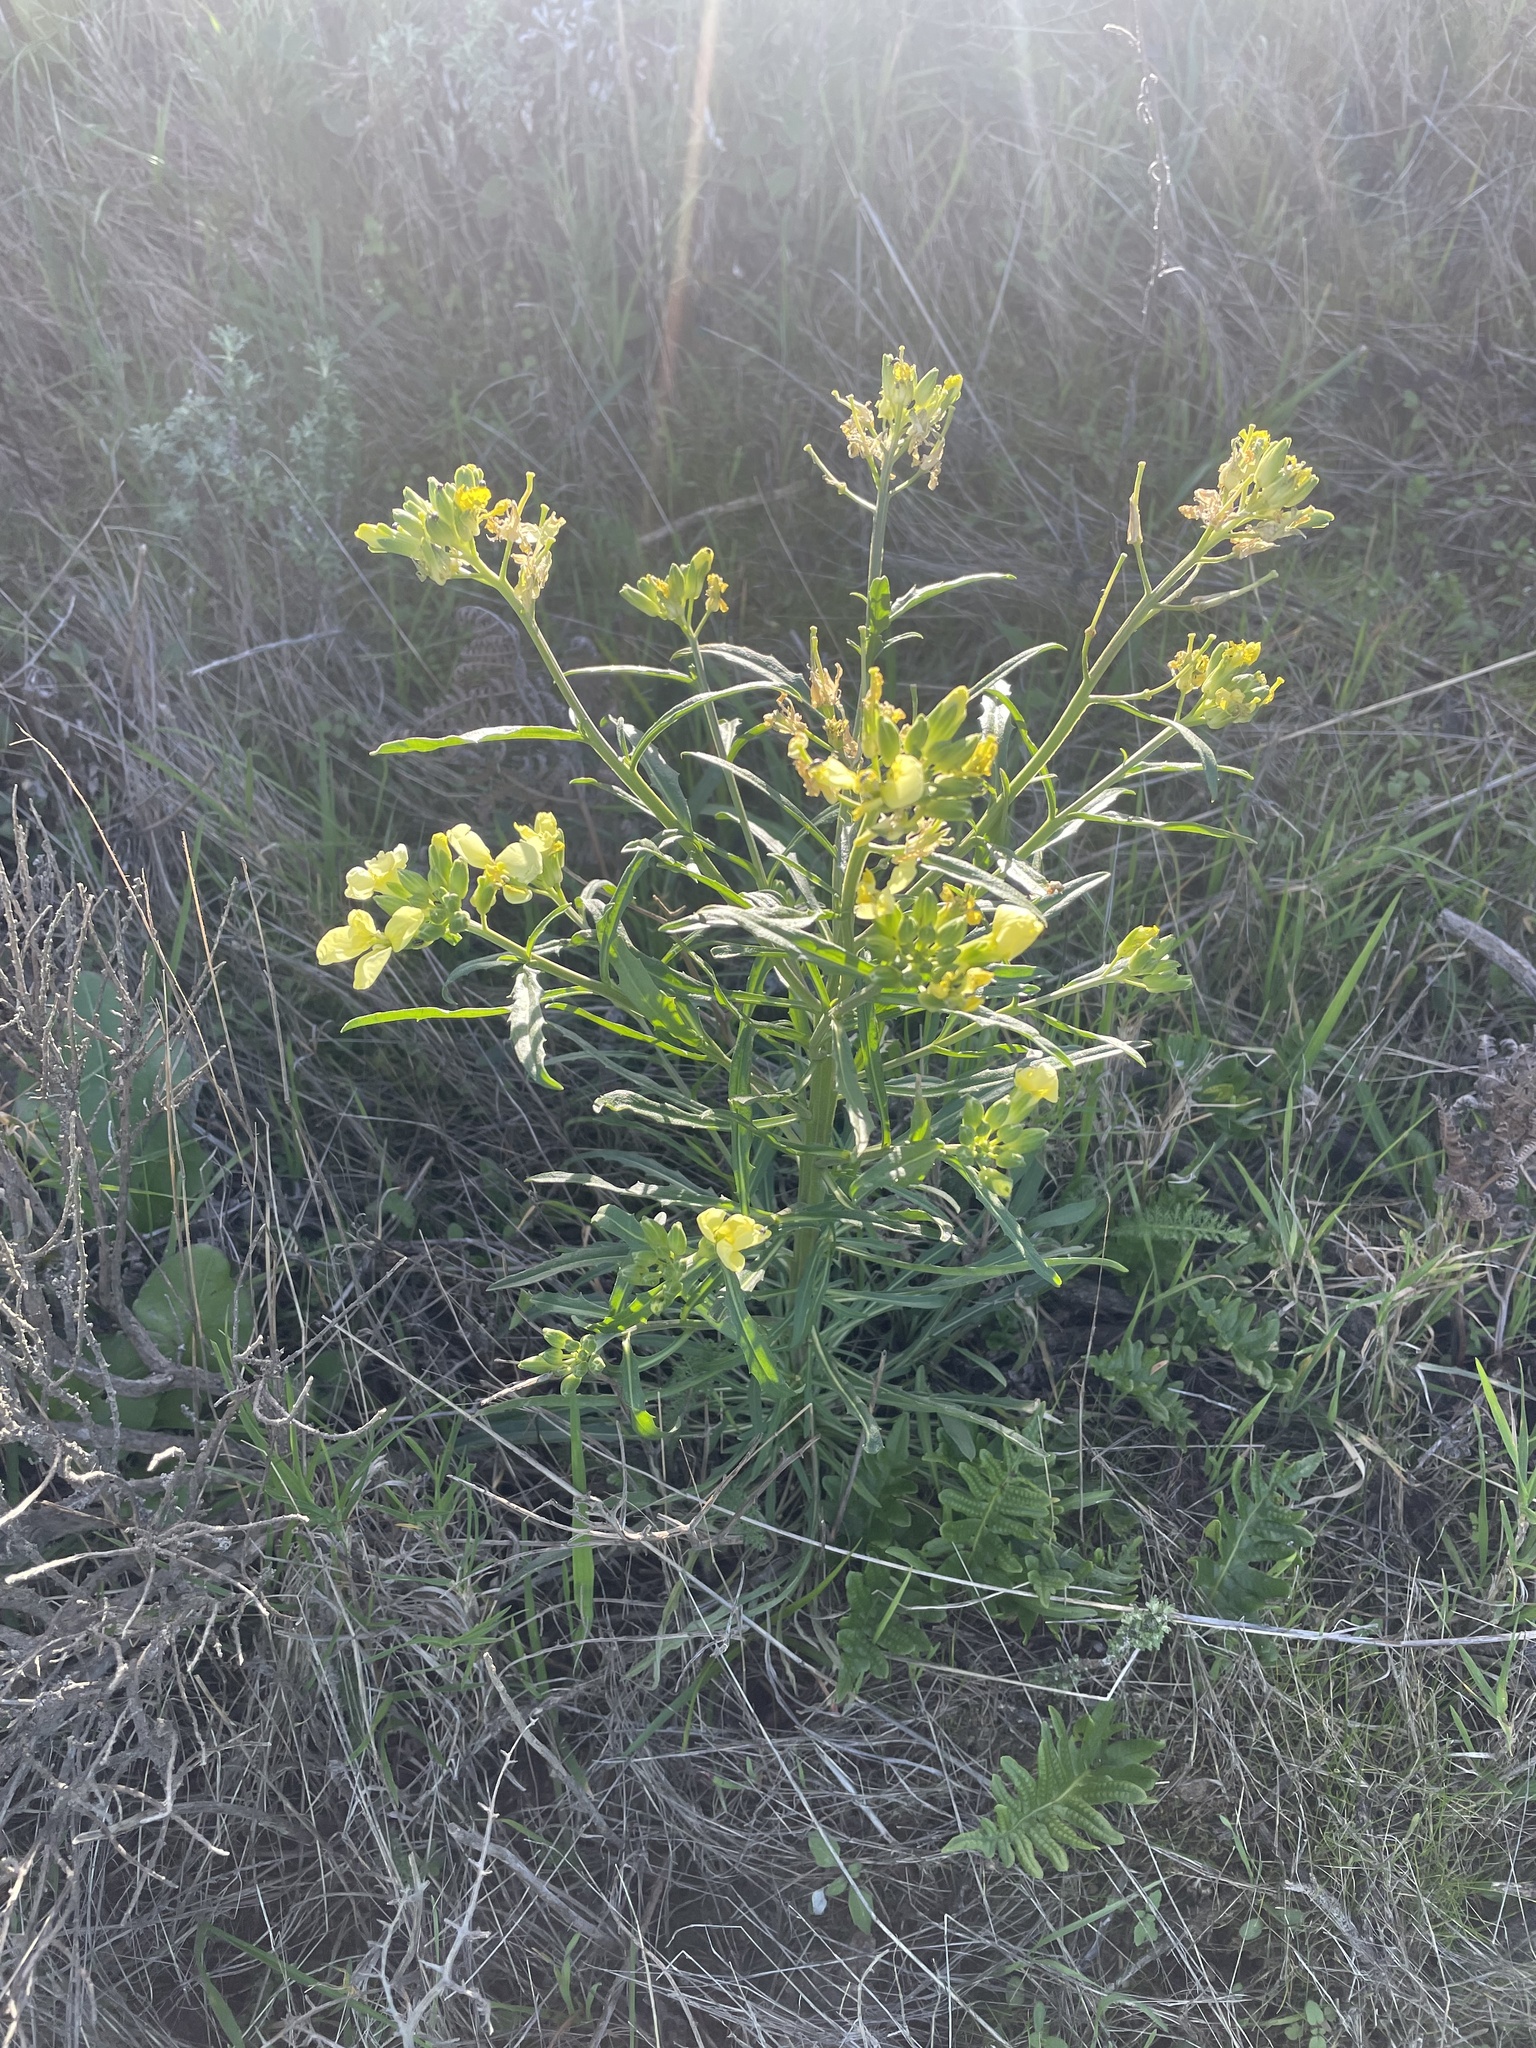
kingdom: Plantae
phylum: Tracheophyta
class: Magnoliopsida
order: Brassicales
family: Brassicaceae
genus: Erysimum
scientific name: Erysimum franciscanum
